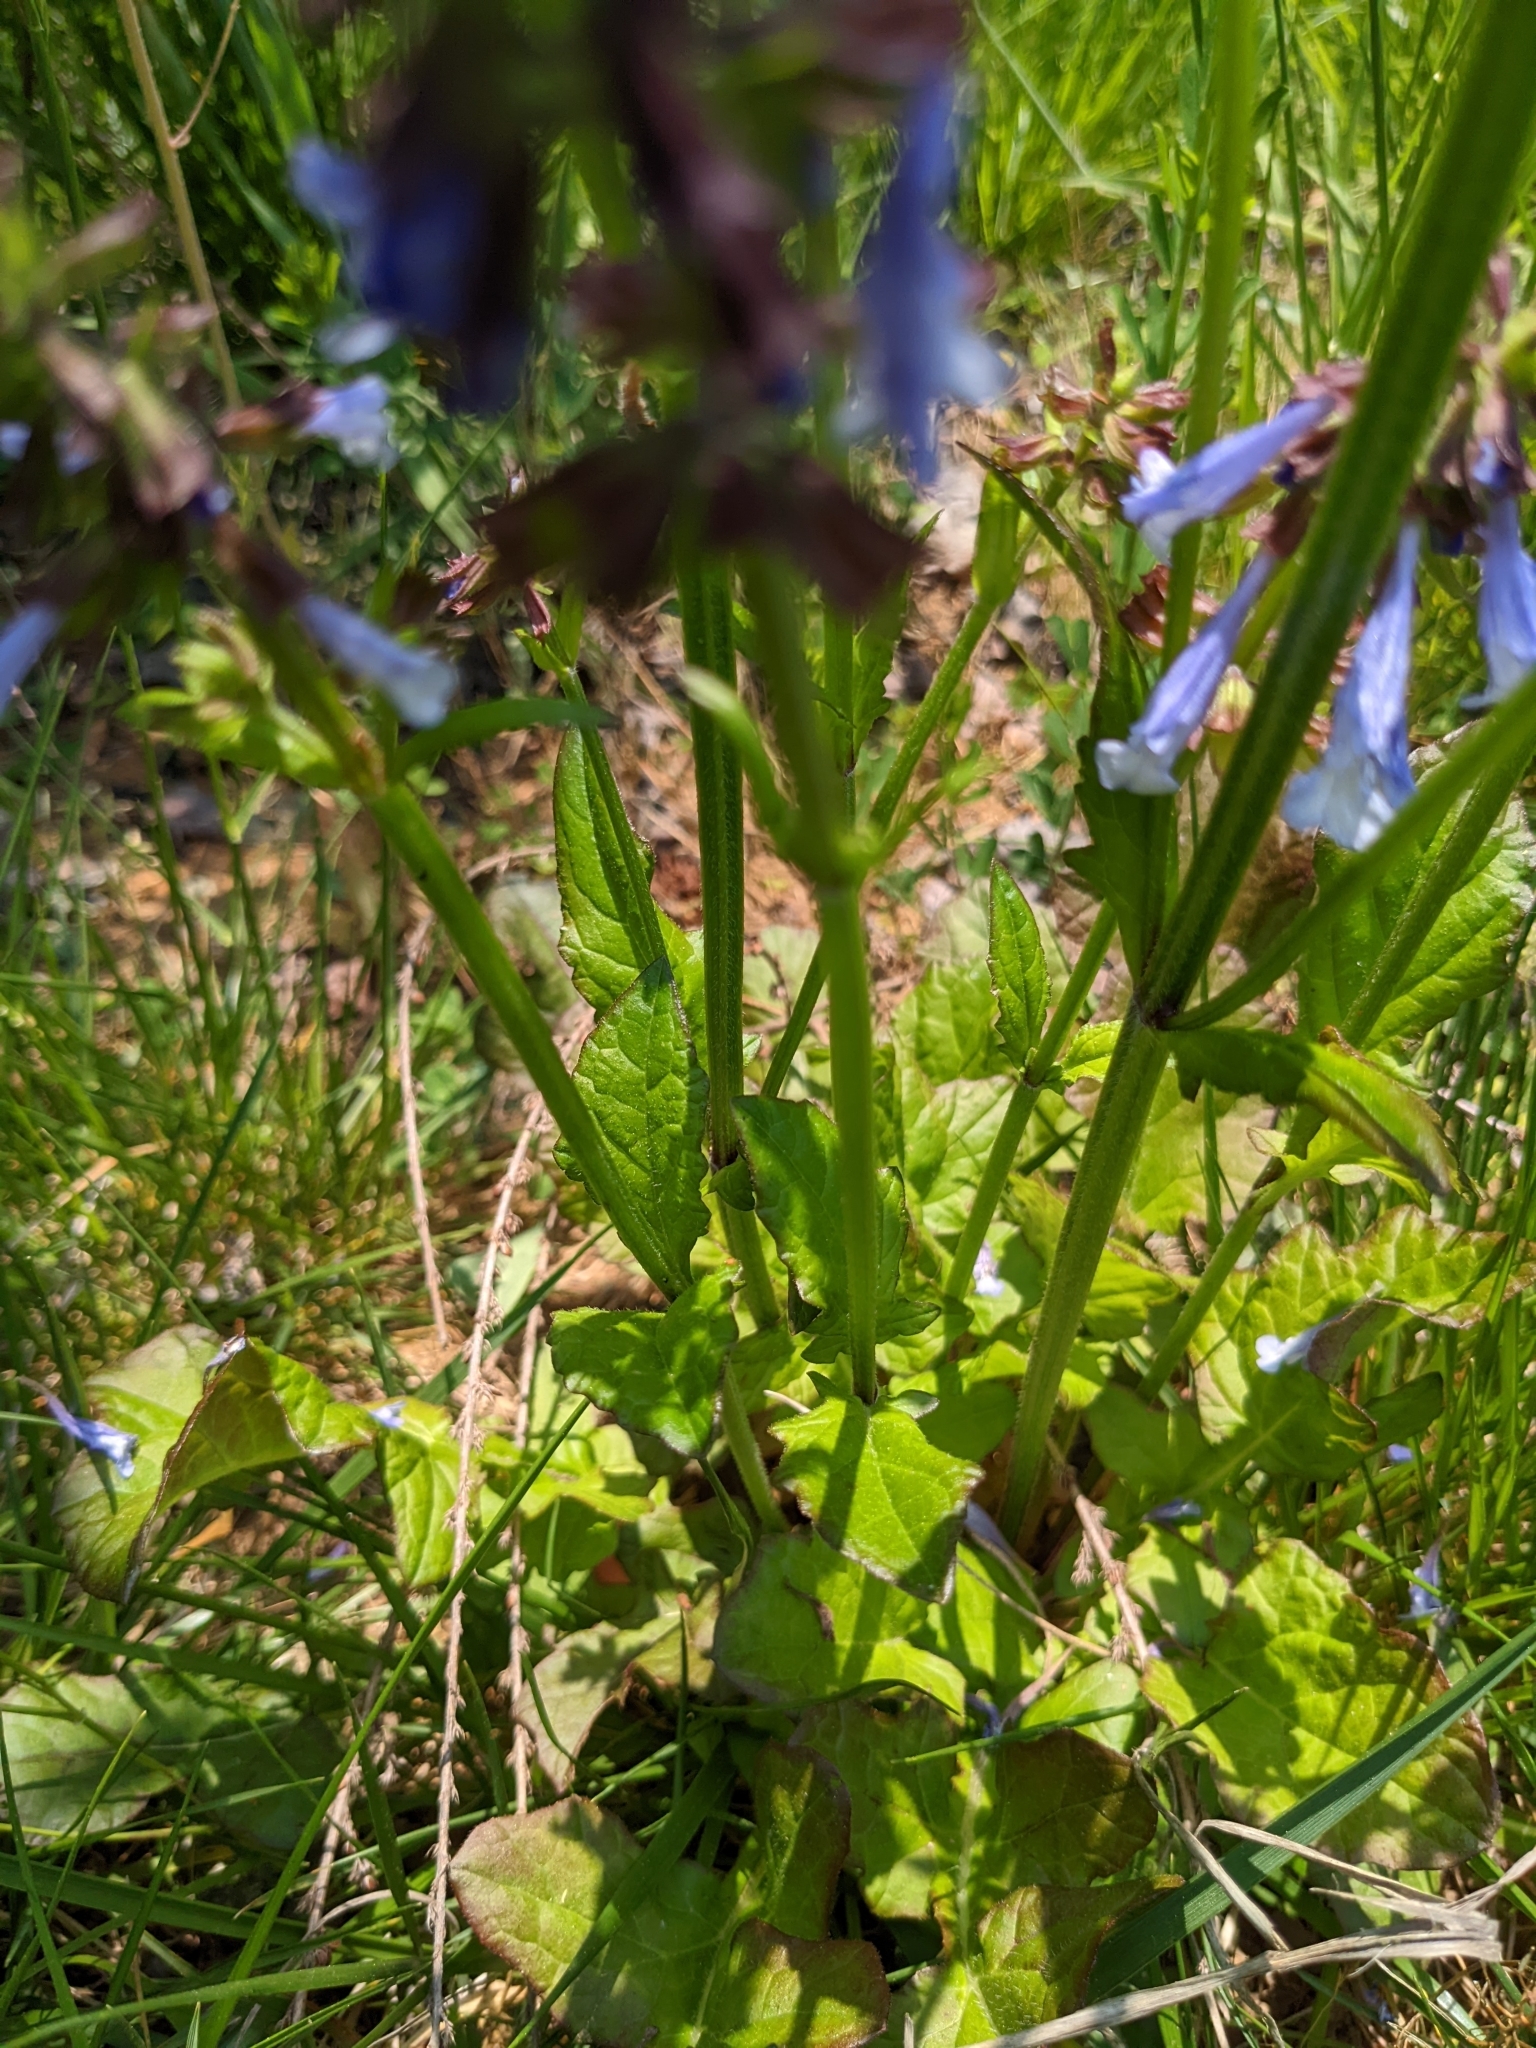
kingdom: Plantae
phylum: Tracheophyta
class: Magnoliopsida
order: Lamiales
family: Lamiaceae
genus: Salvia
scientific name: Salvia lyrata
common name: Cancerweed
